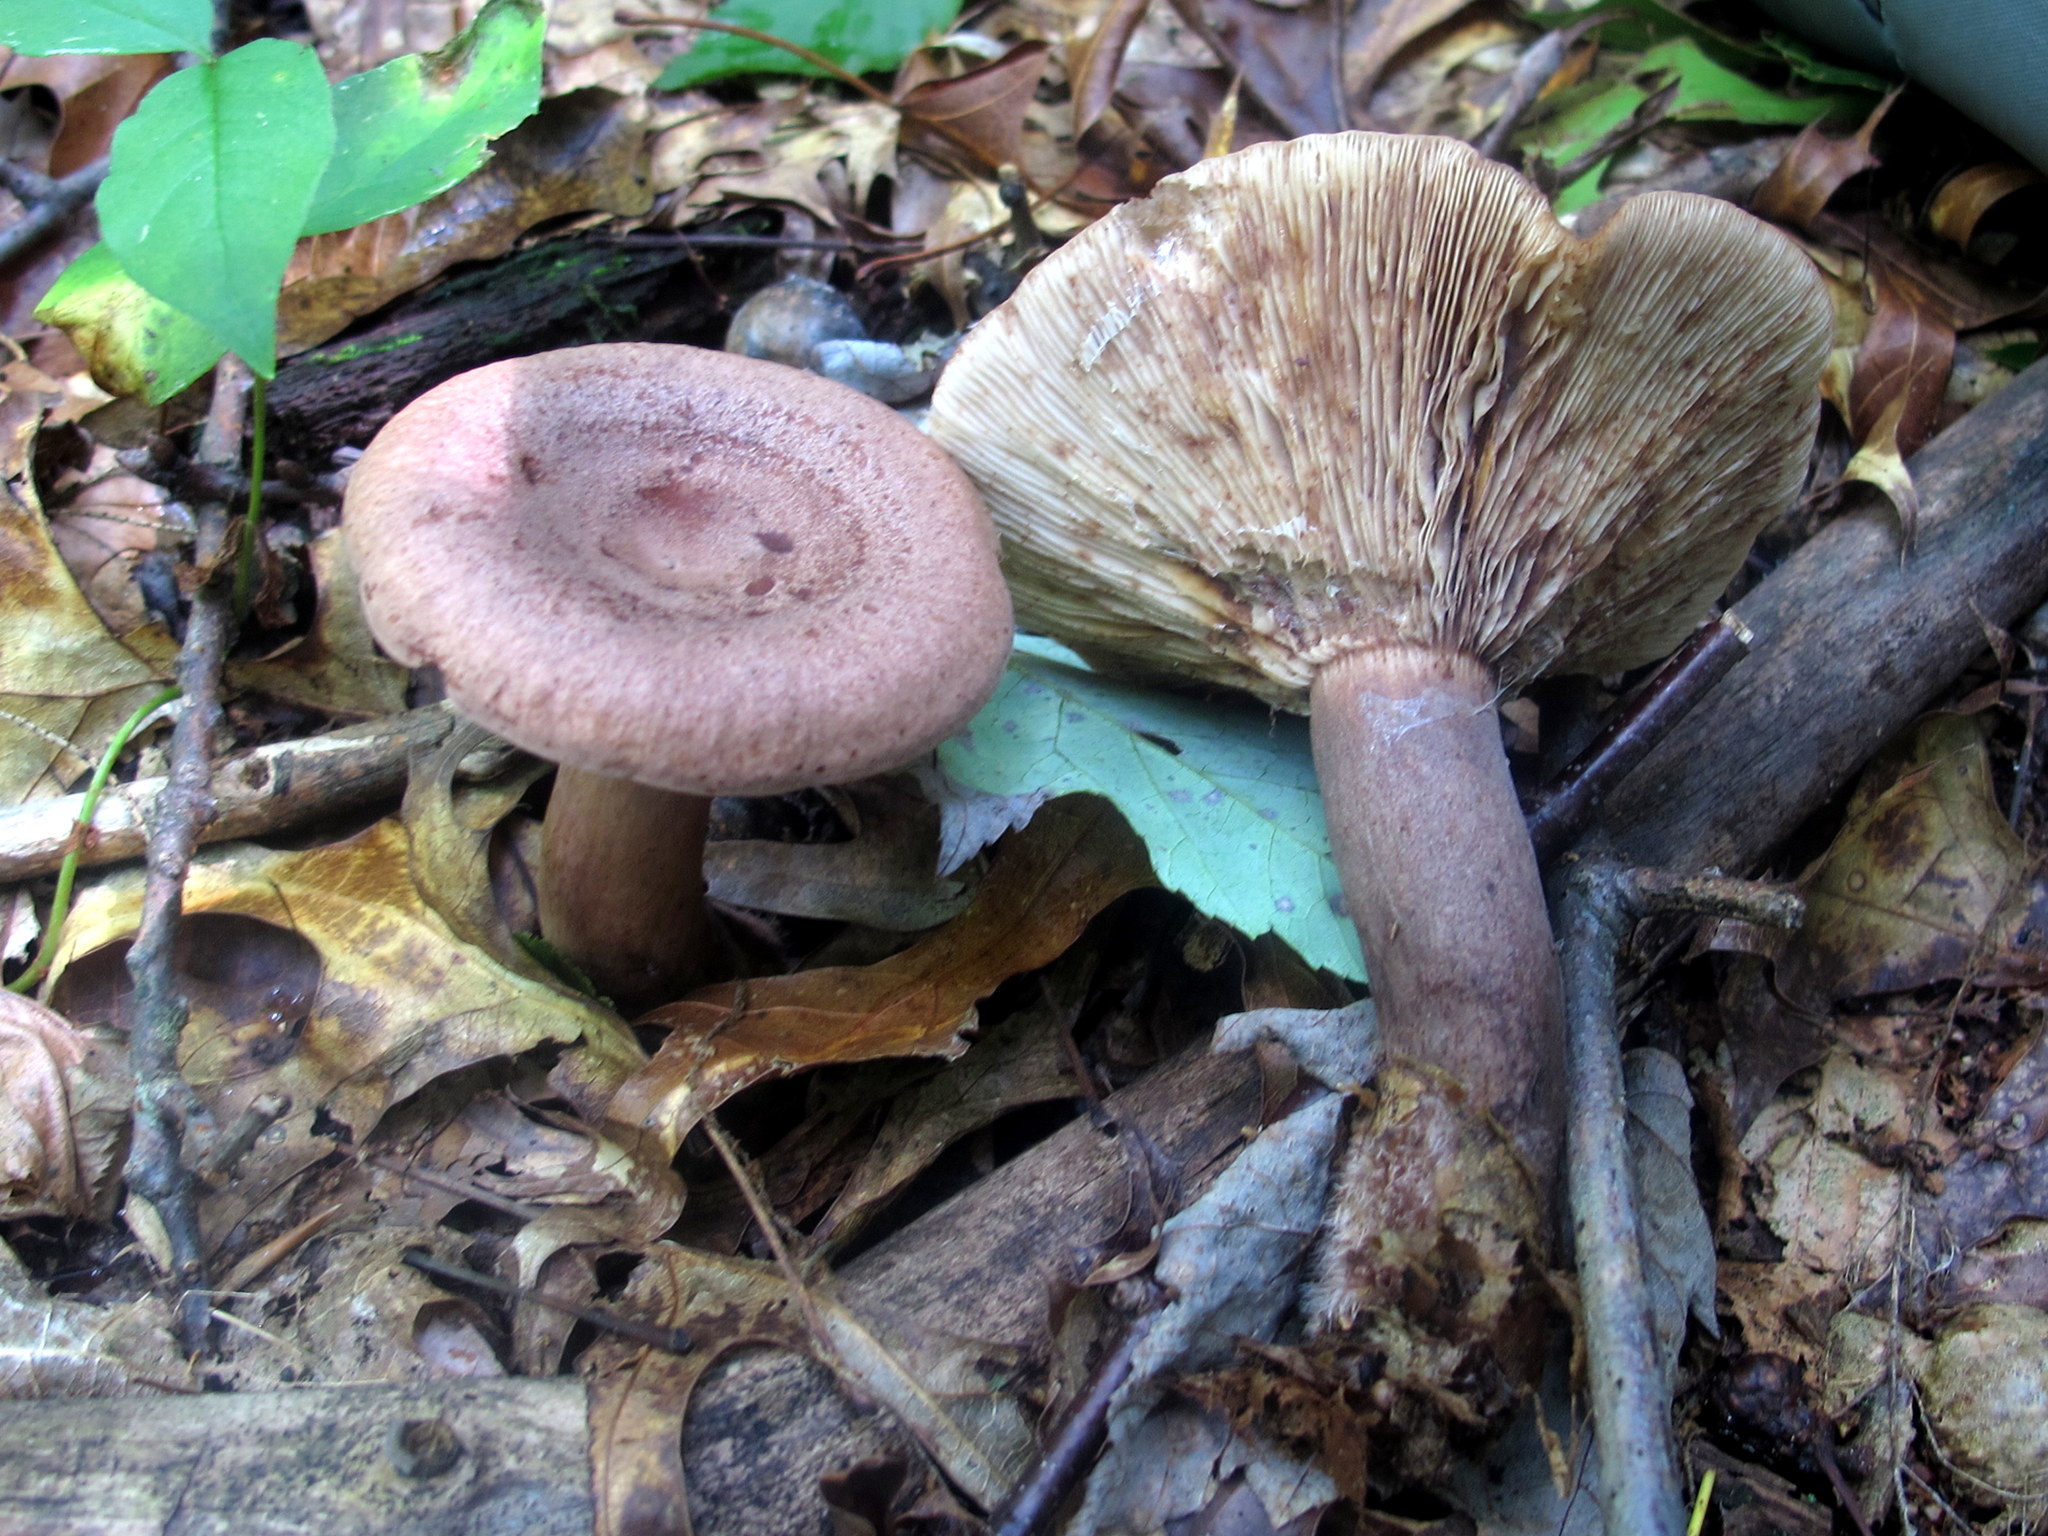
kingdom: Fungi
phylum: Basidiomycota
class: Agaricomycetes
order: Russulales
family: Russulaceae
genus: Lactarius
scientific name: Lactarius quietus
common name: Oak milk-cap
